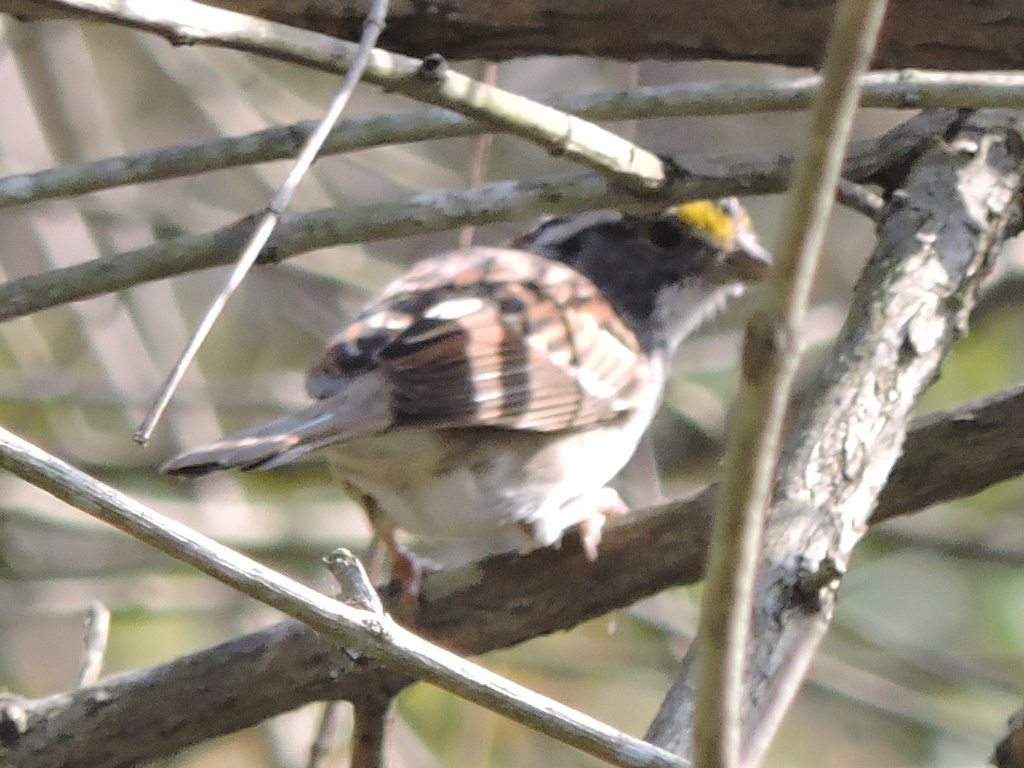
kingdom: Animalia
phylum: Chordata
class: Aves
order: Passeriformes
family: Passerellidae
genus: Zonotrichia
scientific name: Zonotrichia albicollis
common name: White-throated sparrow
